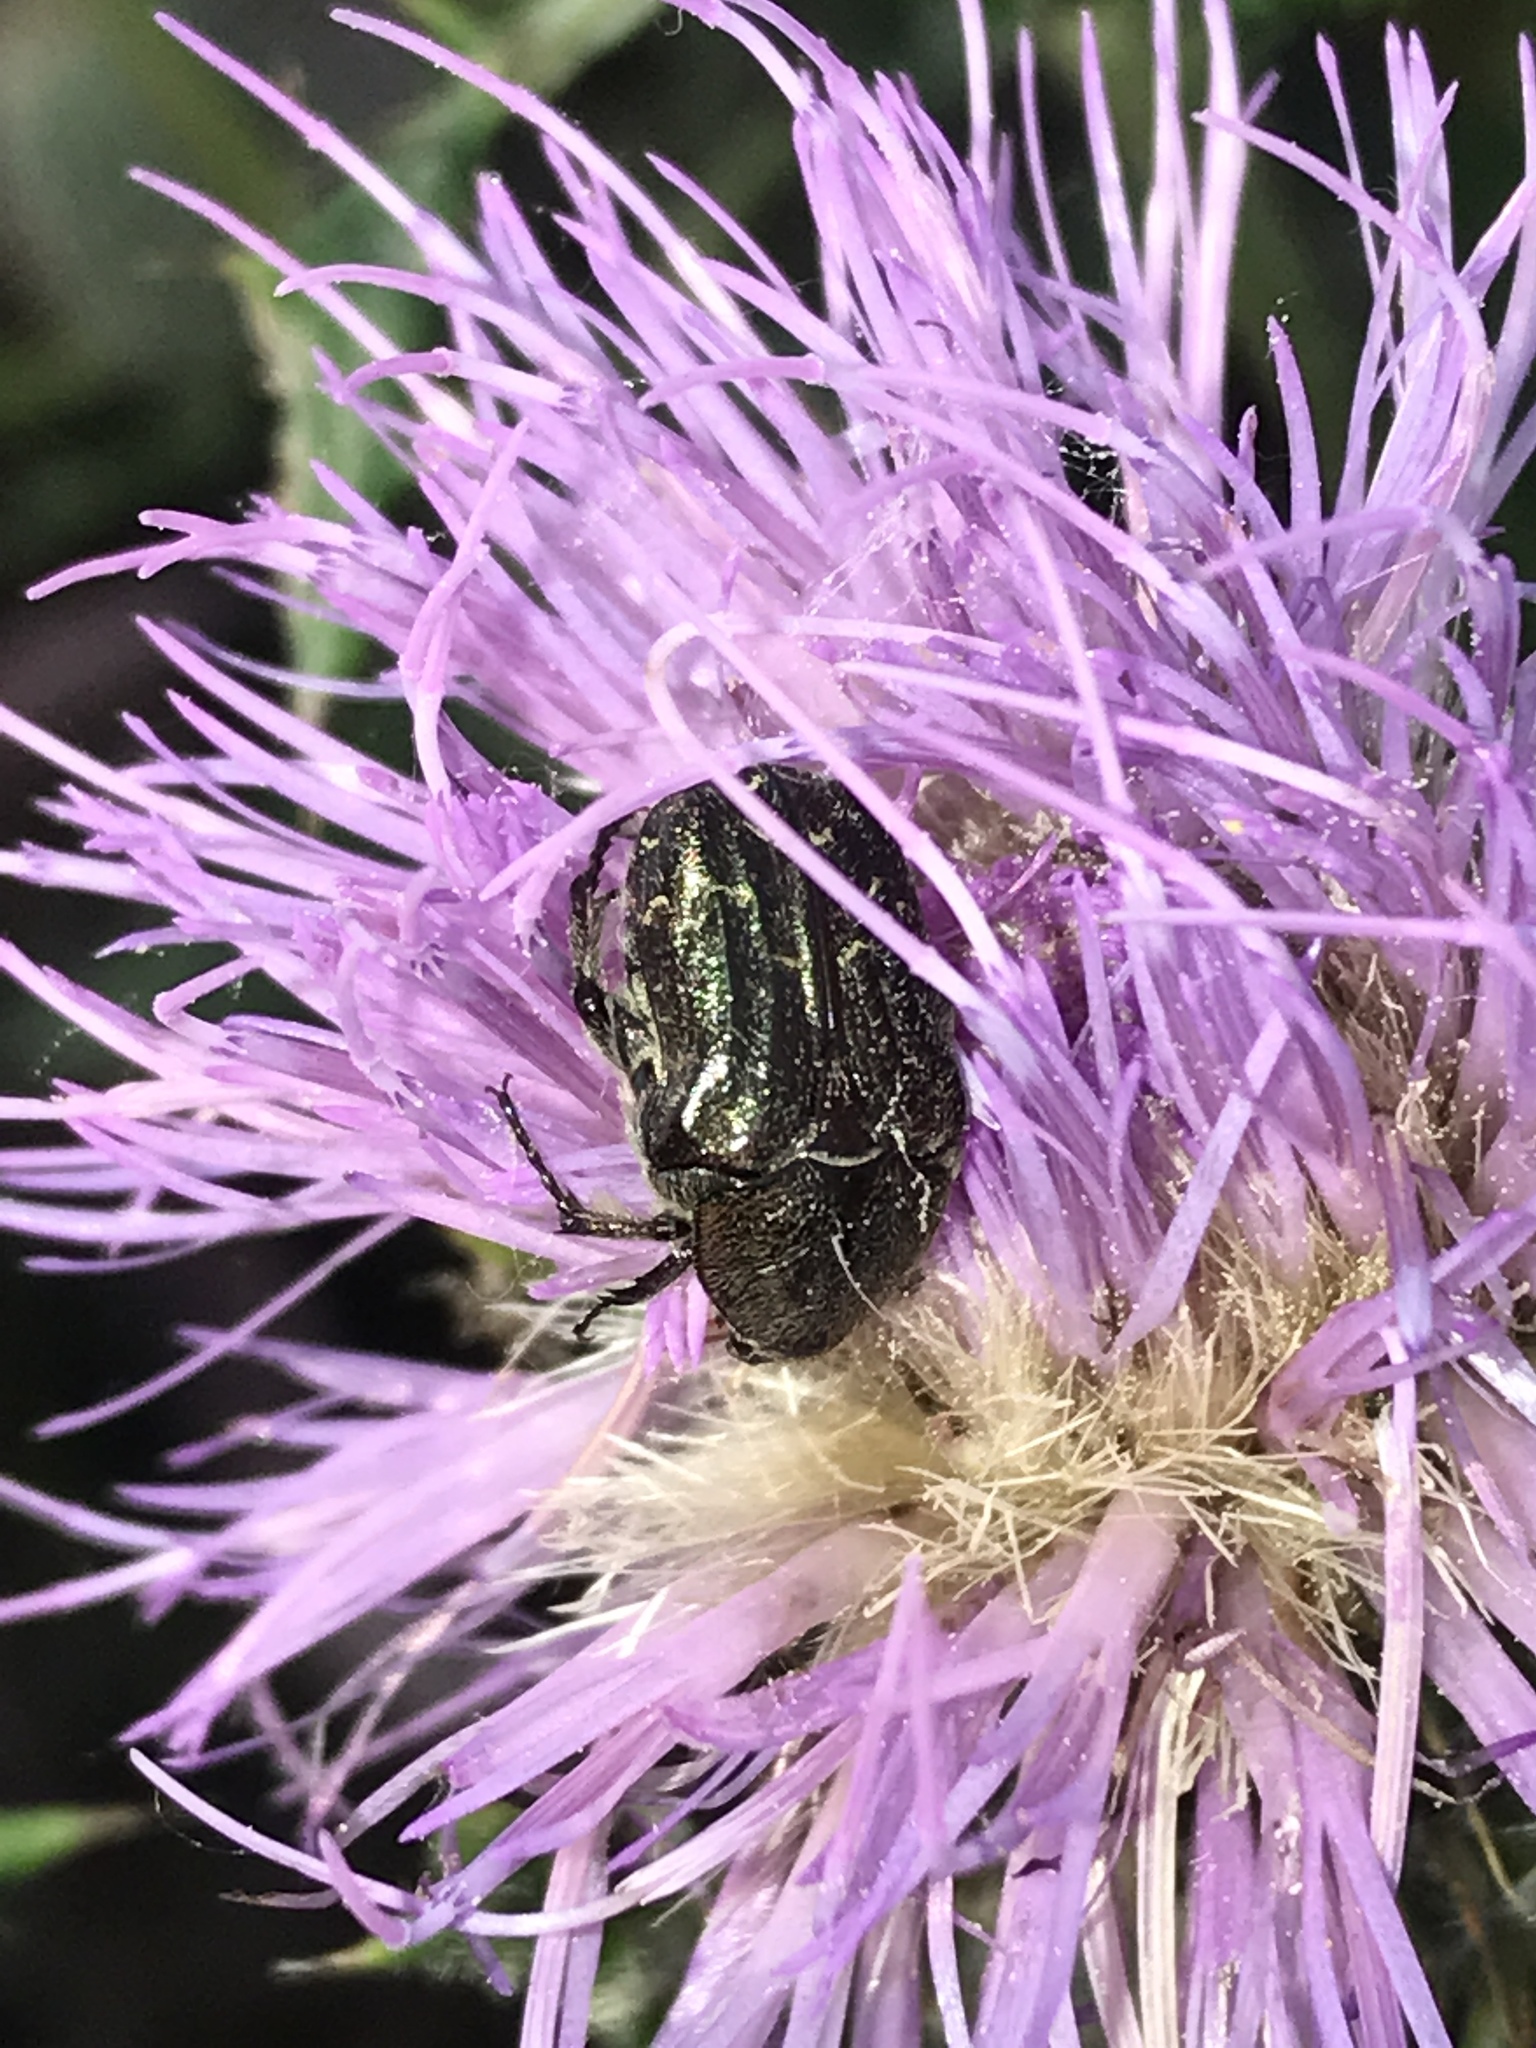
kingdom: Animalia
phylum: Arthropoda
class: Insecta
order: Coleoptera
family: Scarabaeidae
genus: Euphoria
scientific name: Euphoria sepulcralis
